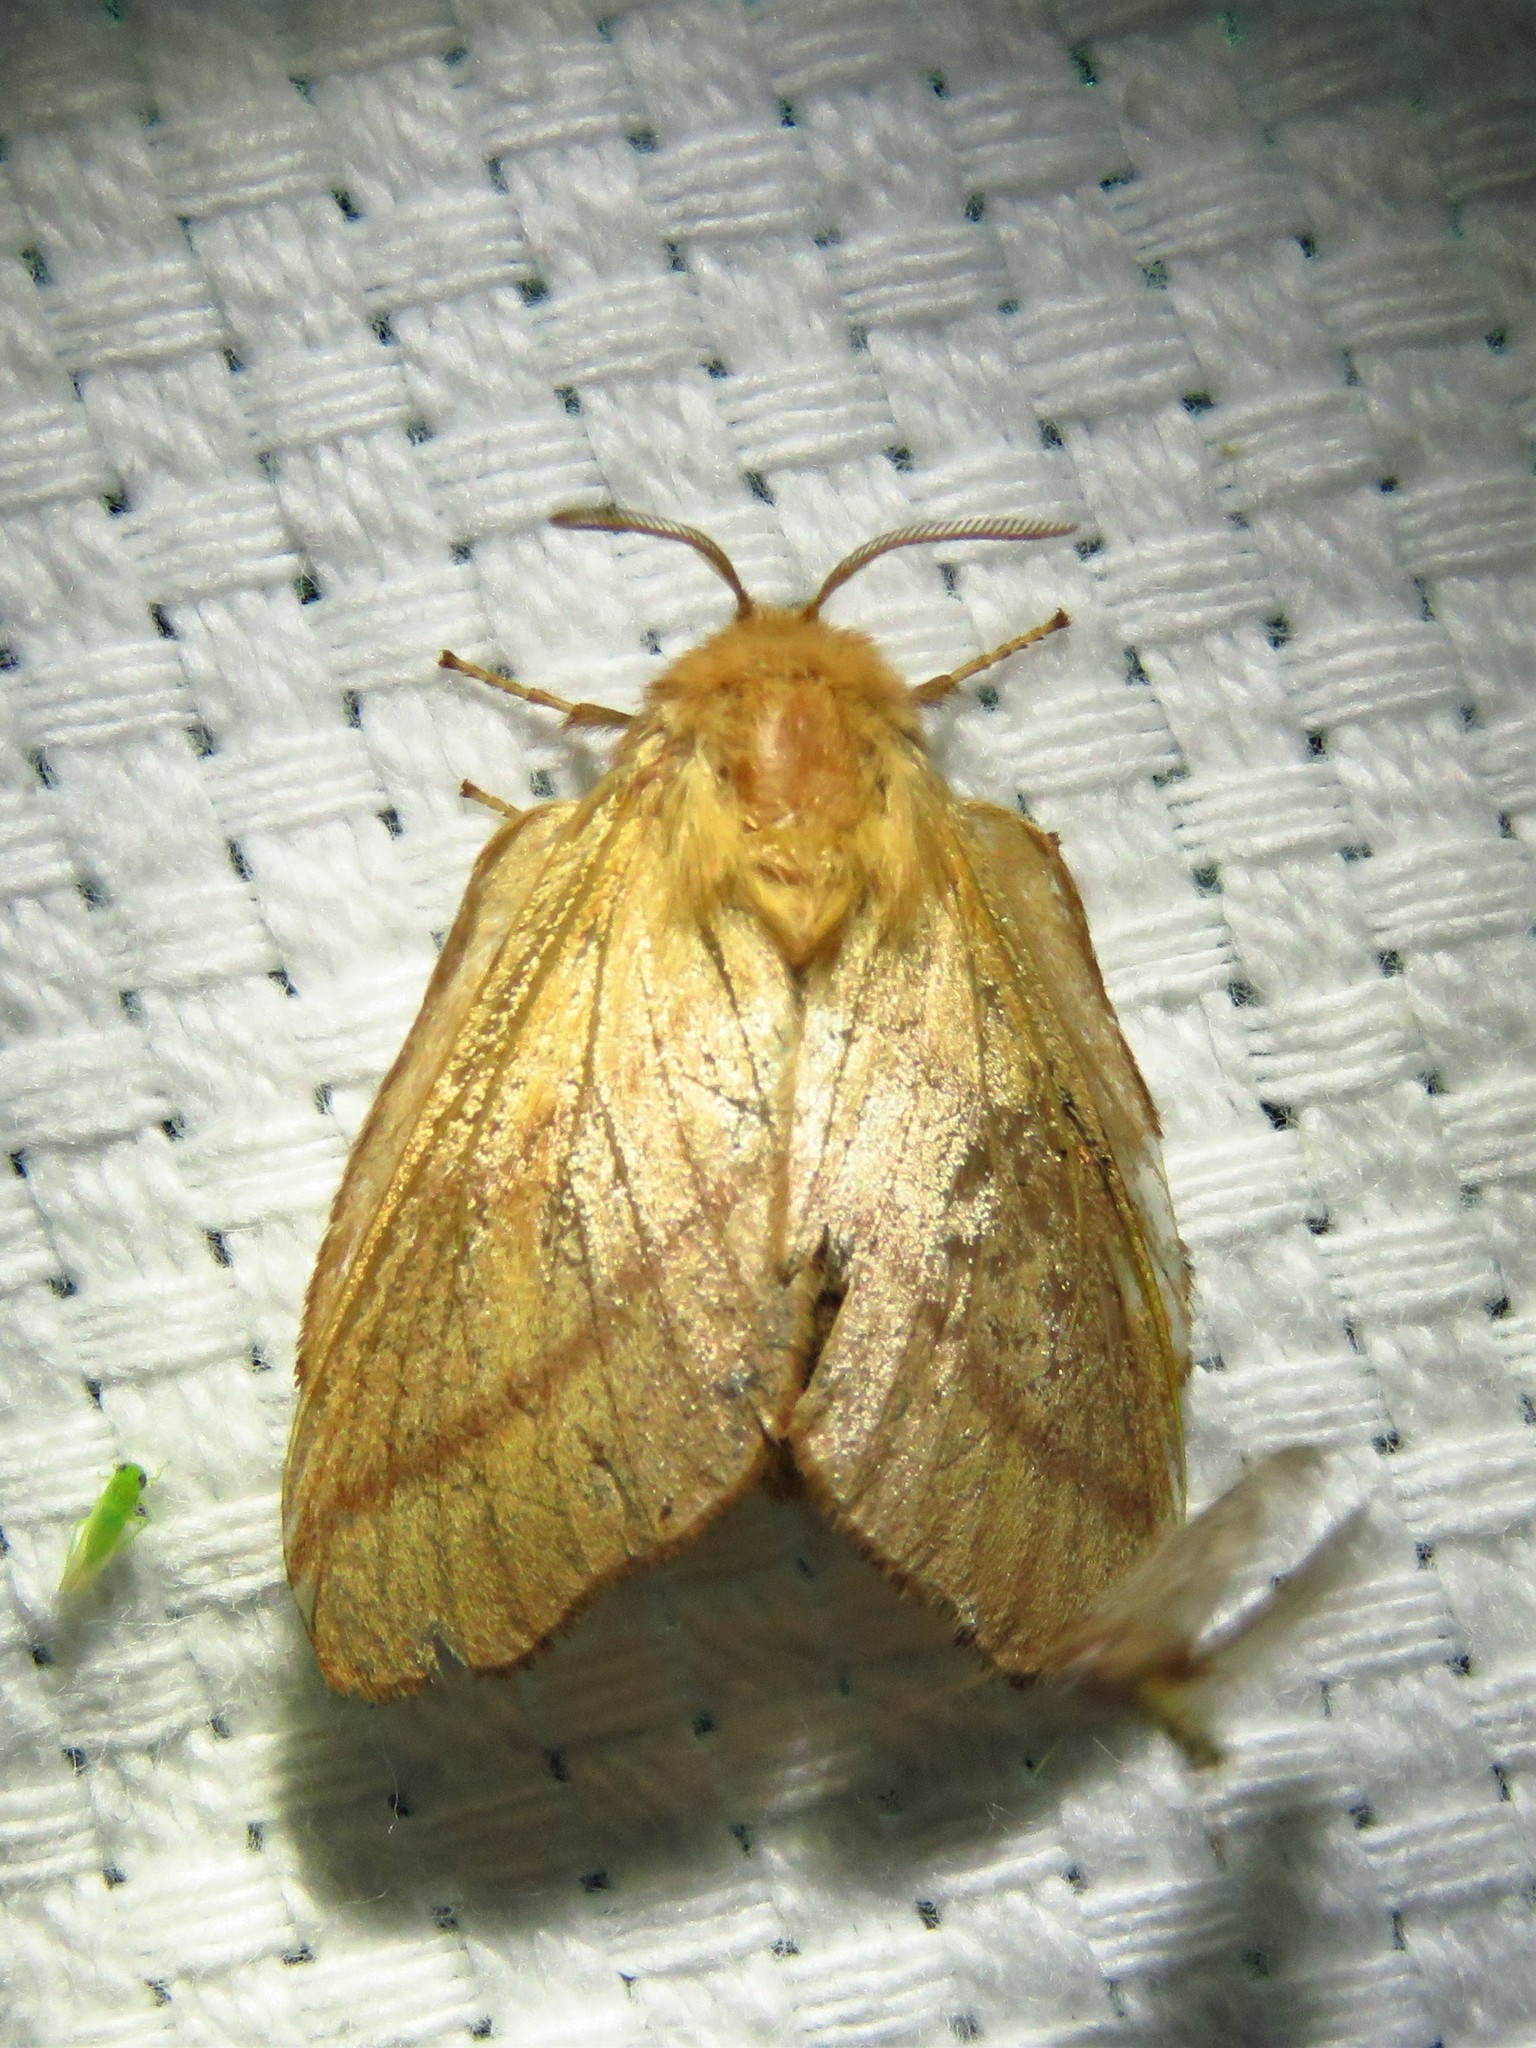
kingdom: Animalia
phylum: Arthropoda
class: Insecta
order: Lepidoptera
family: Lasiocampidae
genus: Malacosoma
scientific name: Malacosoma disstria
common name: Forest tent caterpillar
